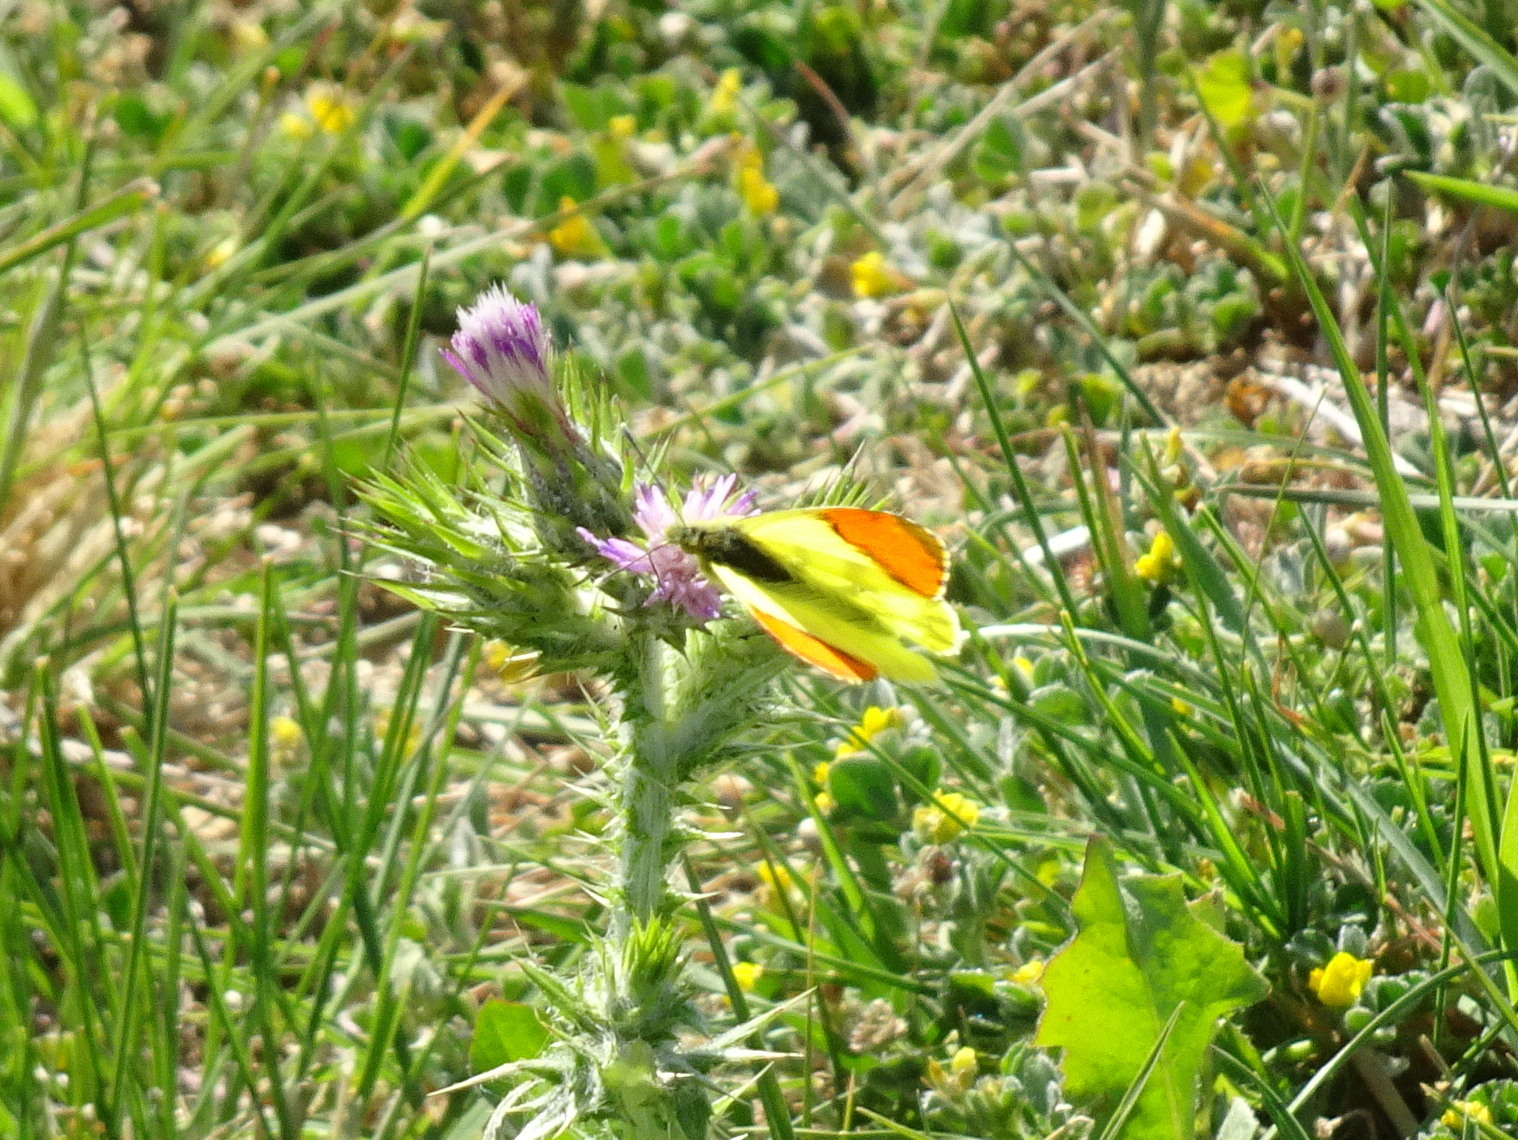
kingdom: Animalia
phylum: Arthropoda
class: Insecta
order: Lepidoptera
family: Pieridae
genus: Anthocharis
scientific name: Anthocharis euphenoides
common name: Provence orange-tip
